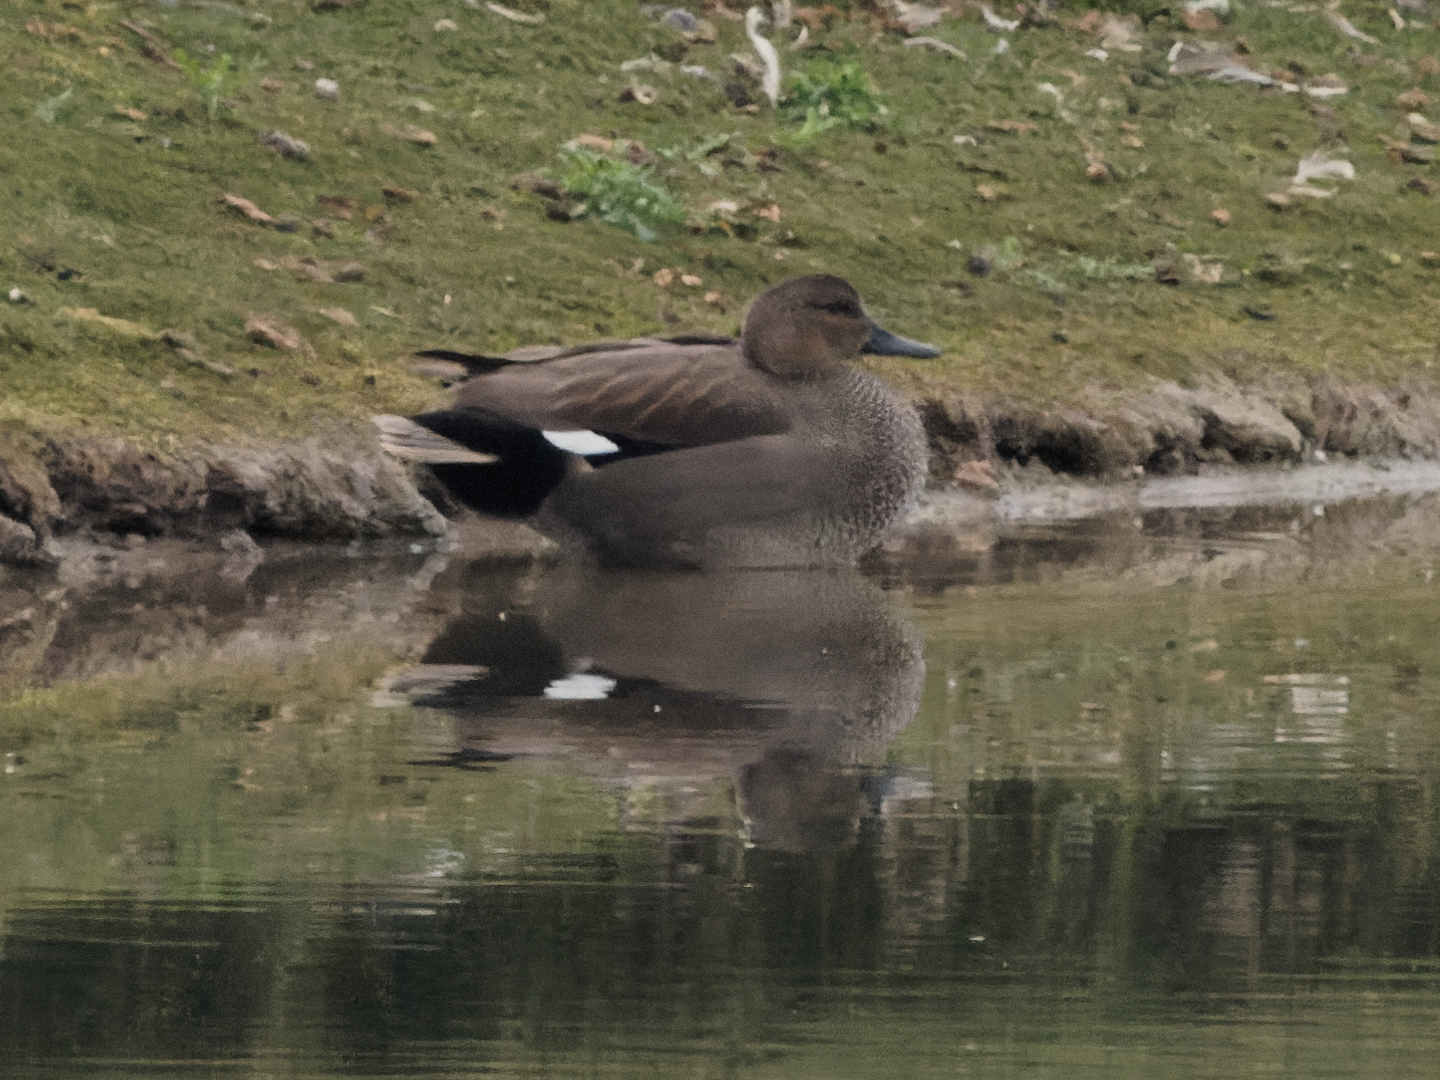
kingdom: Animalia
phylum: Chordata
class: Aves
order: Anseriformes
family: Anatidae
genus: Mareca
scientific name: Mareca strepera
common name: Gadwall
